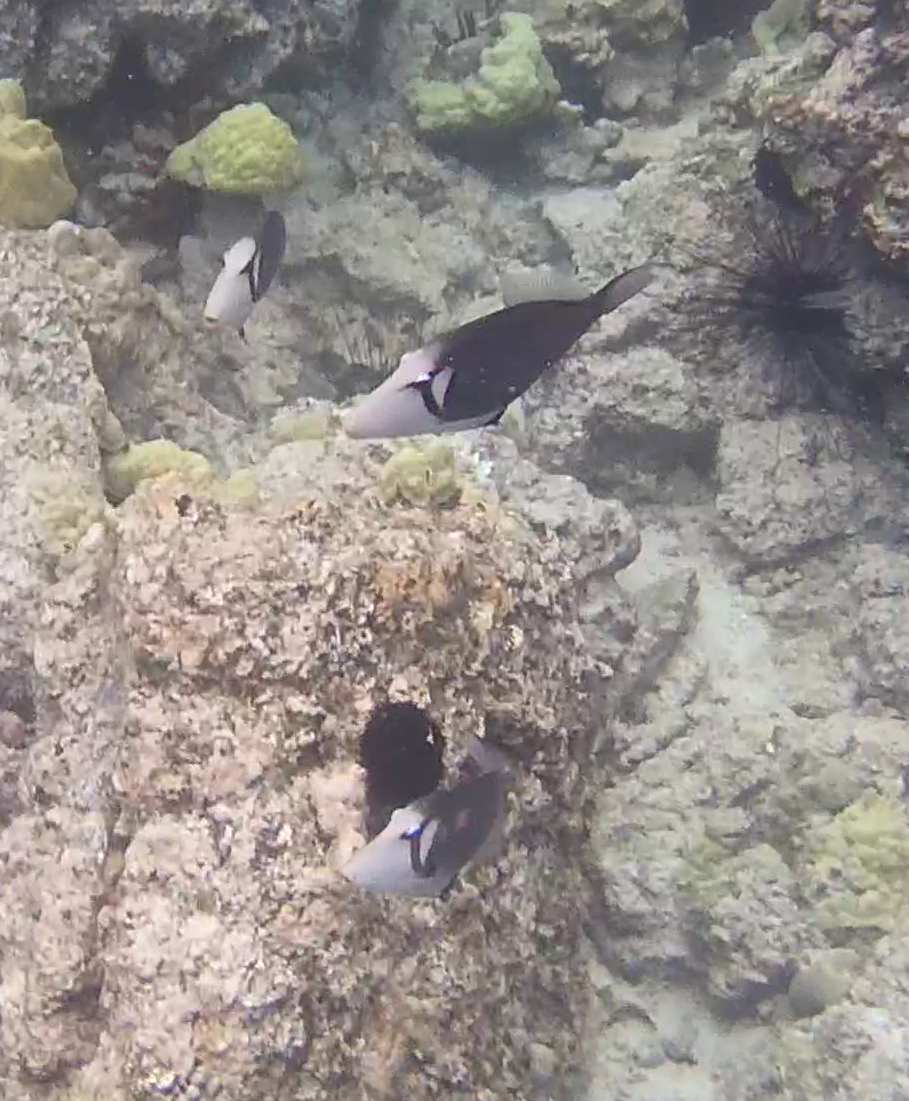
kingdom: Animalia
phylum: Chordata
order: Tetraodontiformes
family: Balistidae
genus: Sufflamen
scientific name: Sufflamen bursa
